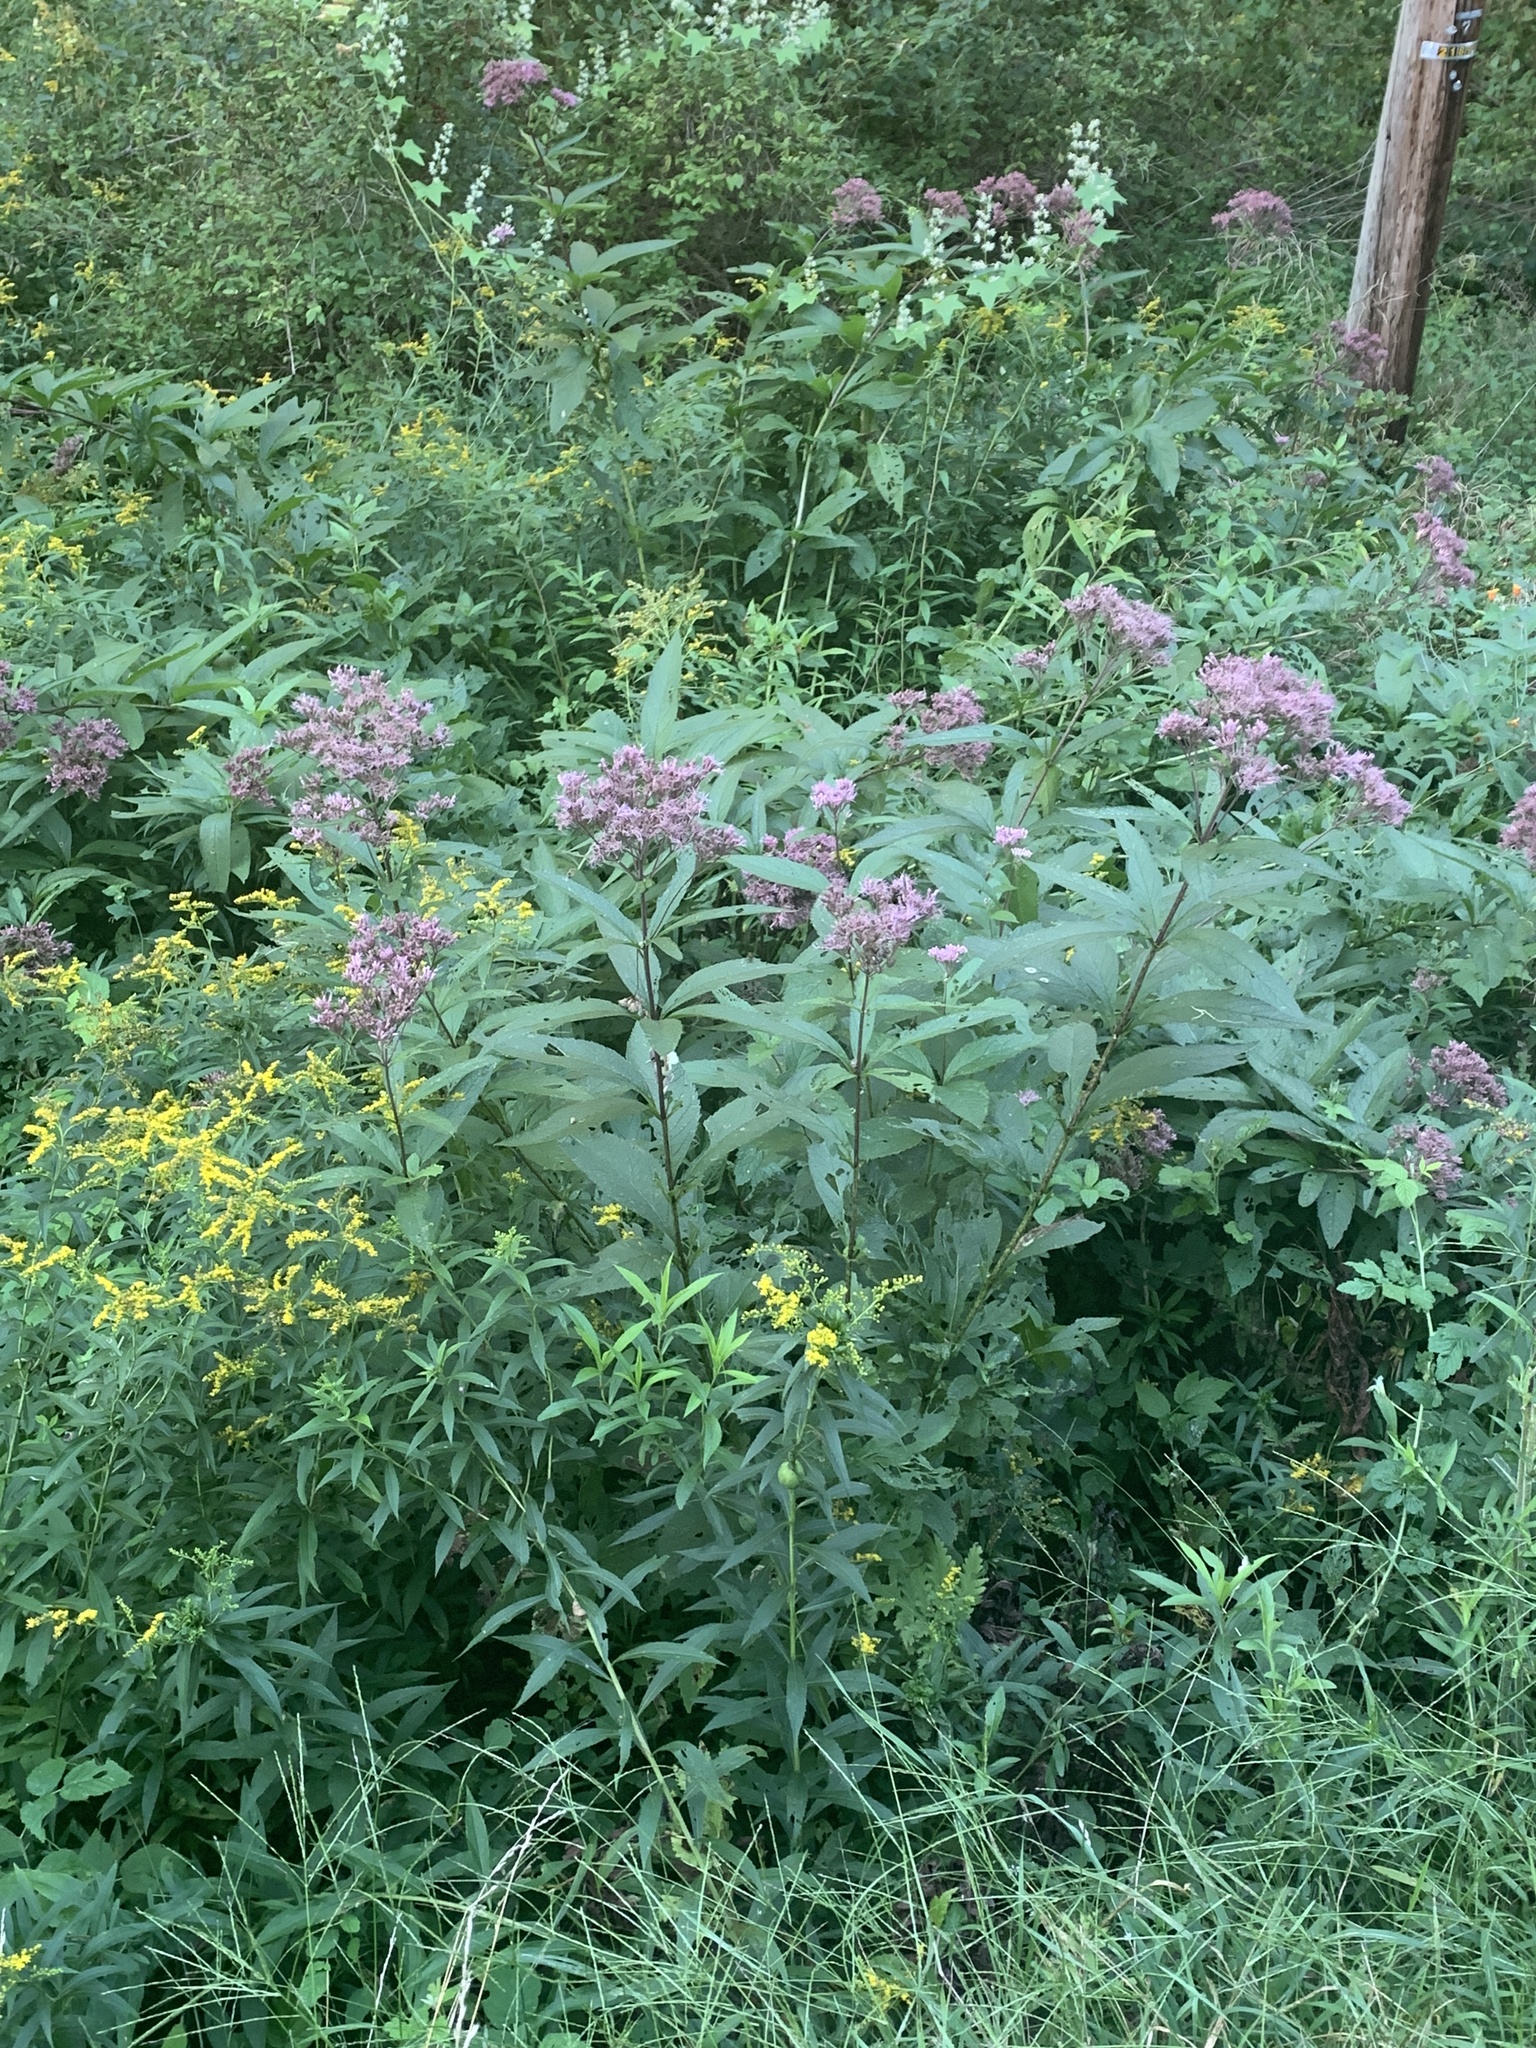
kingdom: Plantae
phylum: Tracheophyta
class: Magnoliopsida
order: Asterales
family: Asteraceae
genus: Eutrochium
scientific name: Eutrochium maculatum
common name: Spotted joe pye weed
